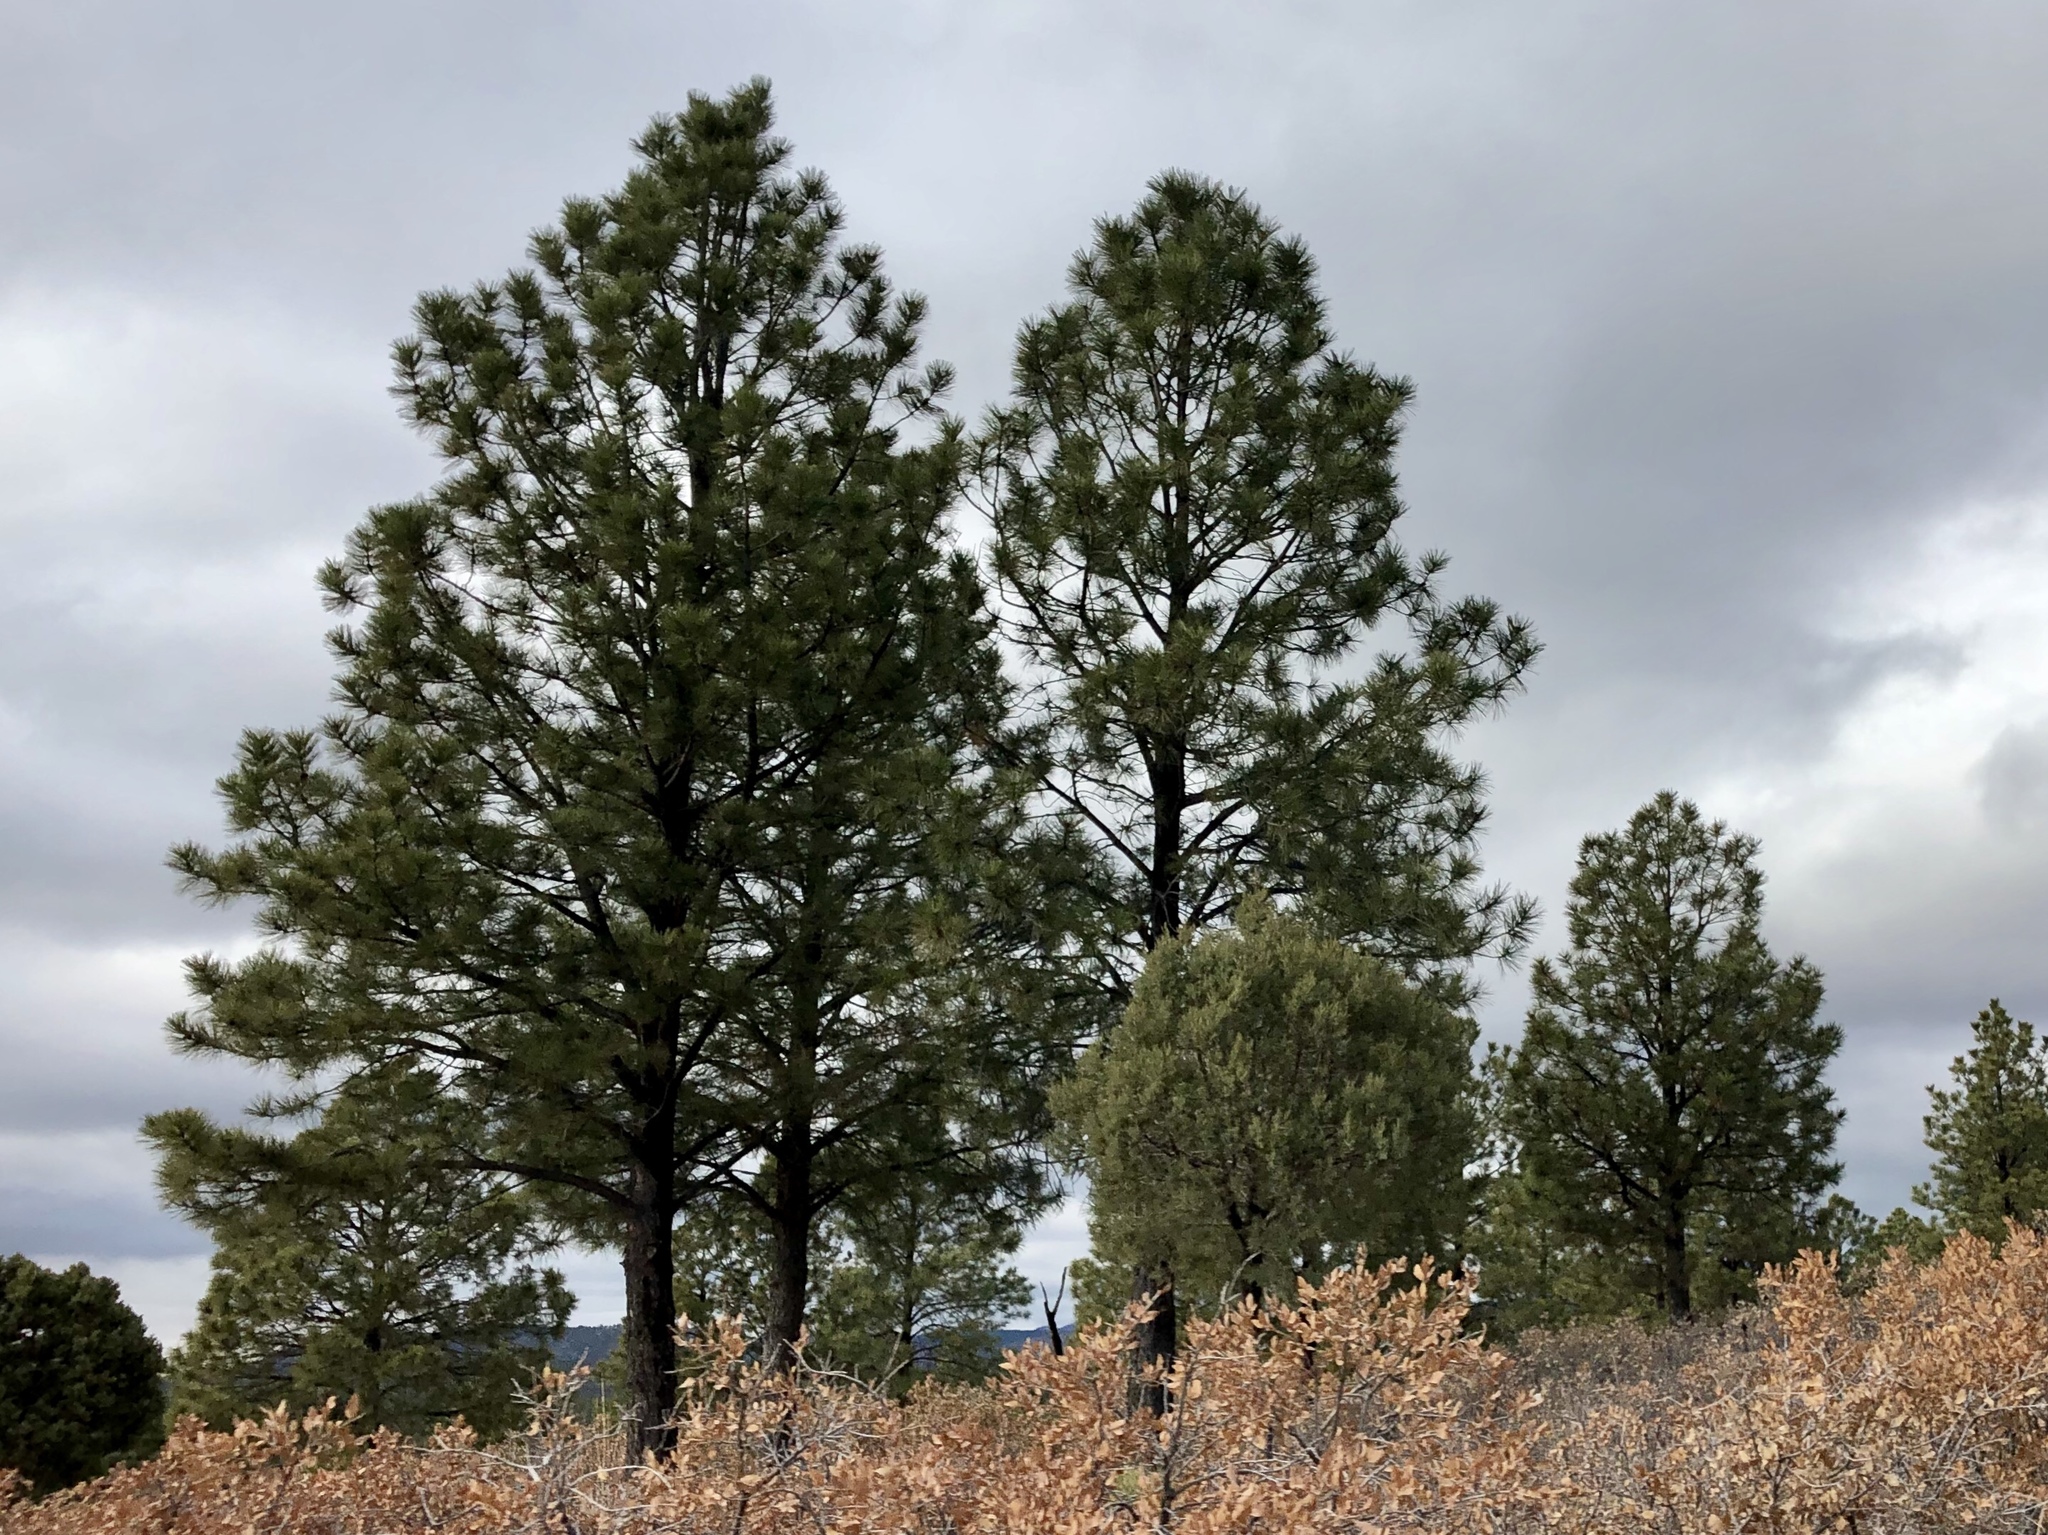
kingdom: Plantae
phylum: Tracheophyta
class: Pinopsida
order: Pinales
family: Pinaceae
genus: Pinus
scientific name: Pinus ponderosa
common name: Western yellow-pine
